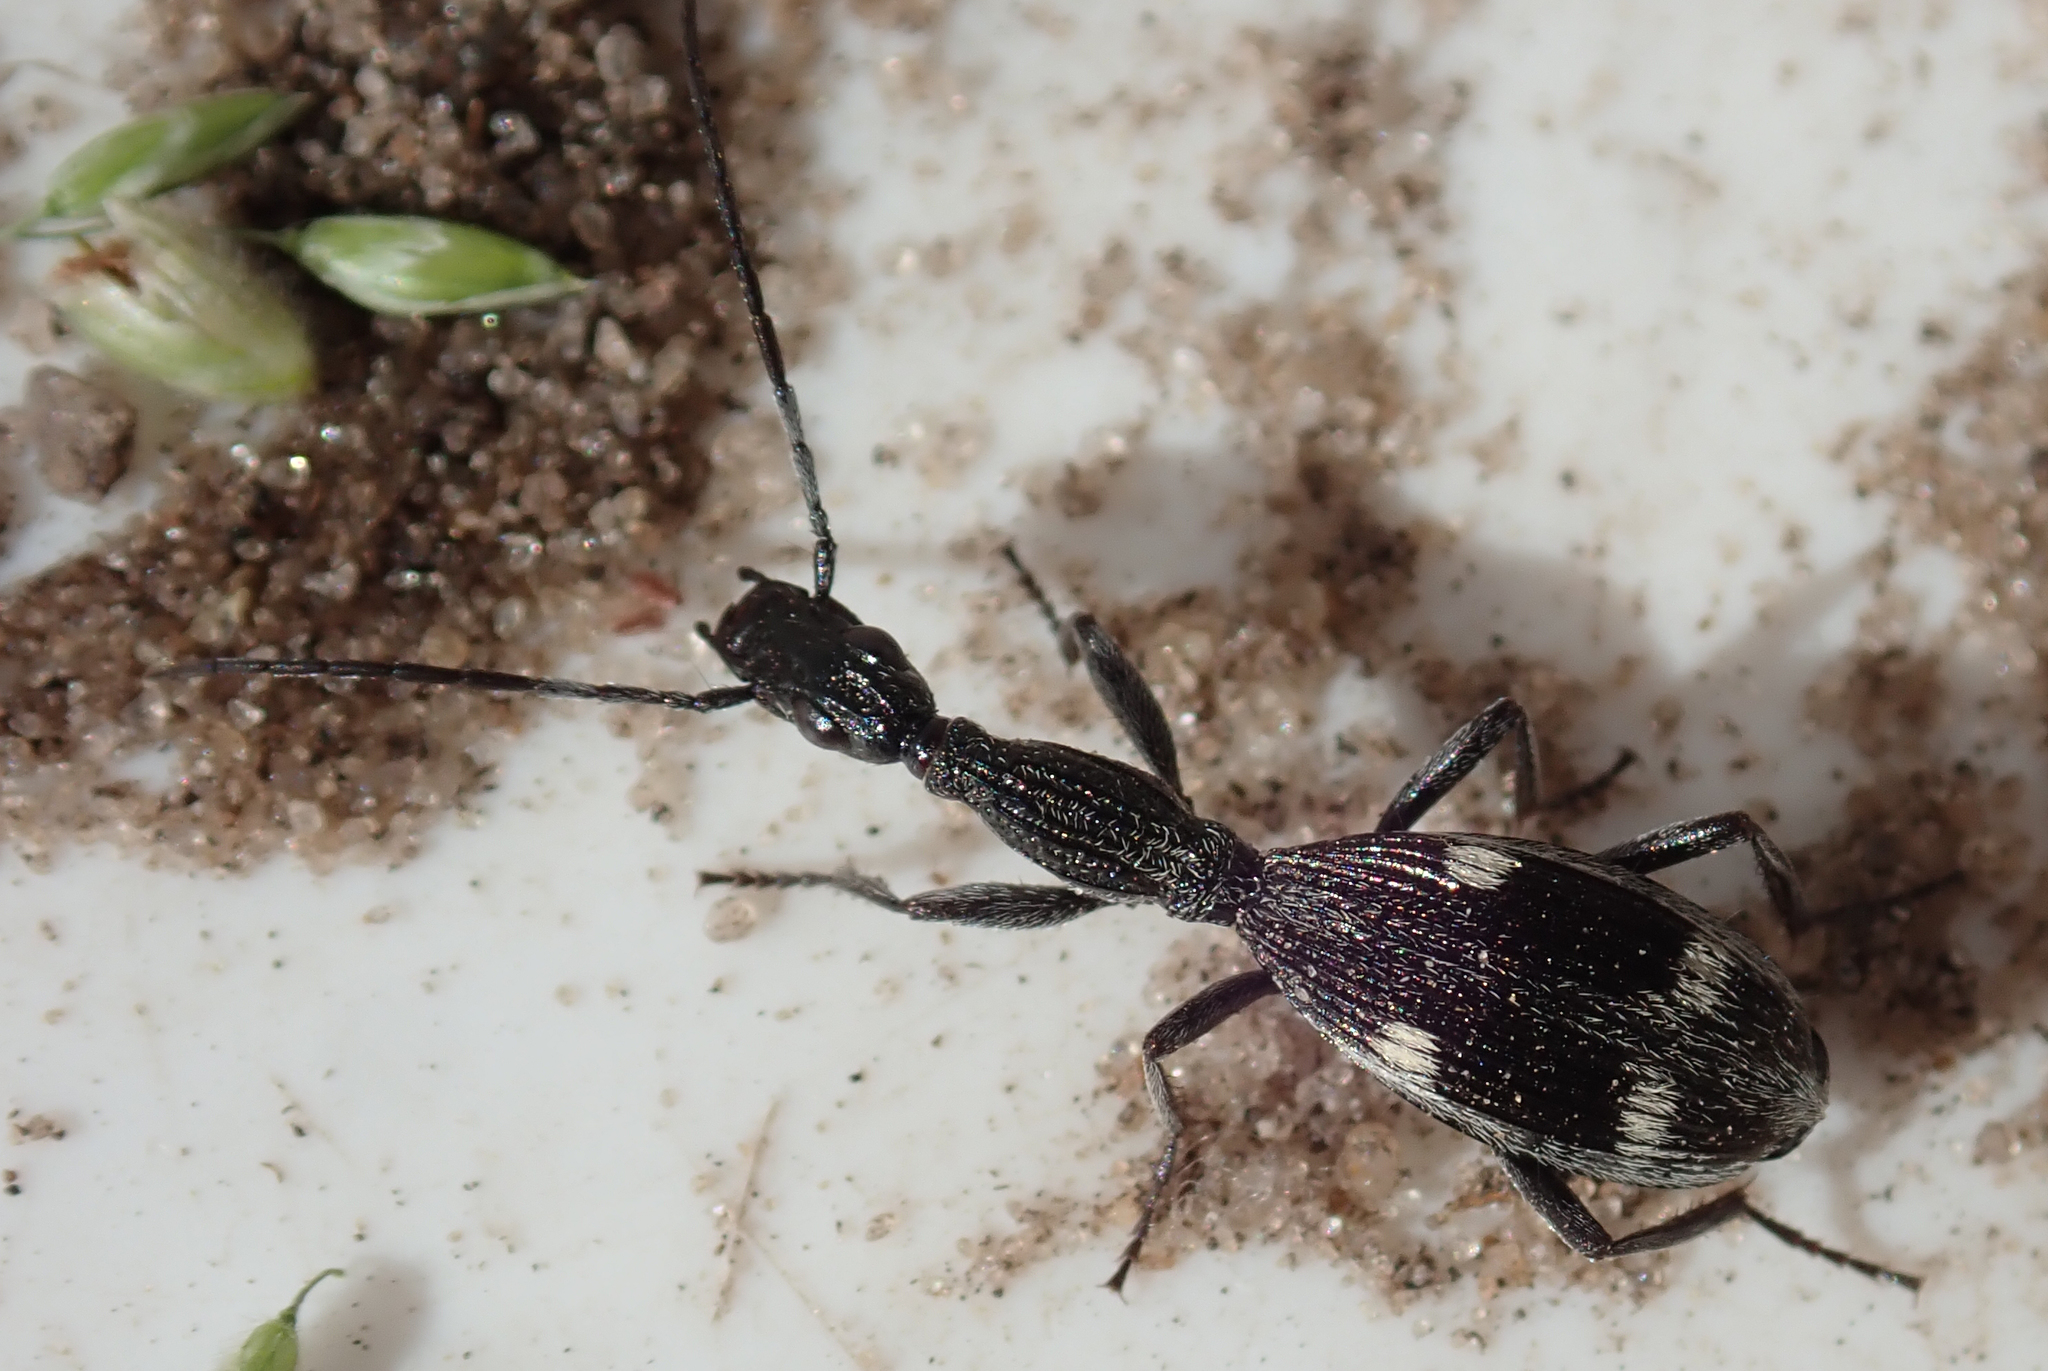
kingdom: Animalia
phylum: Arthropoda
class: Insecta
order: Coleoptera
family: Carabidae
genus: Atractonotus
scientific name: Atractonotus mulsantii
